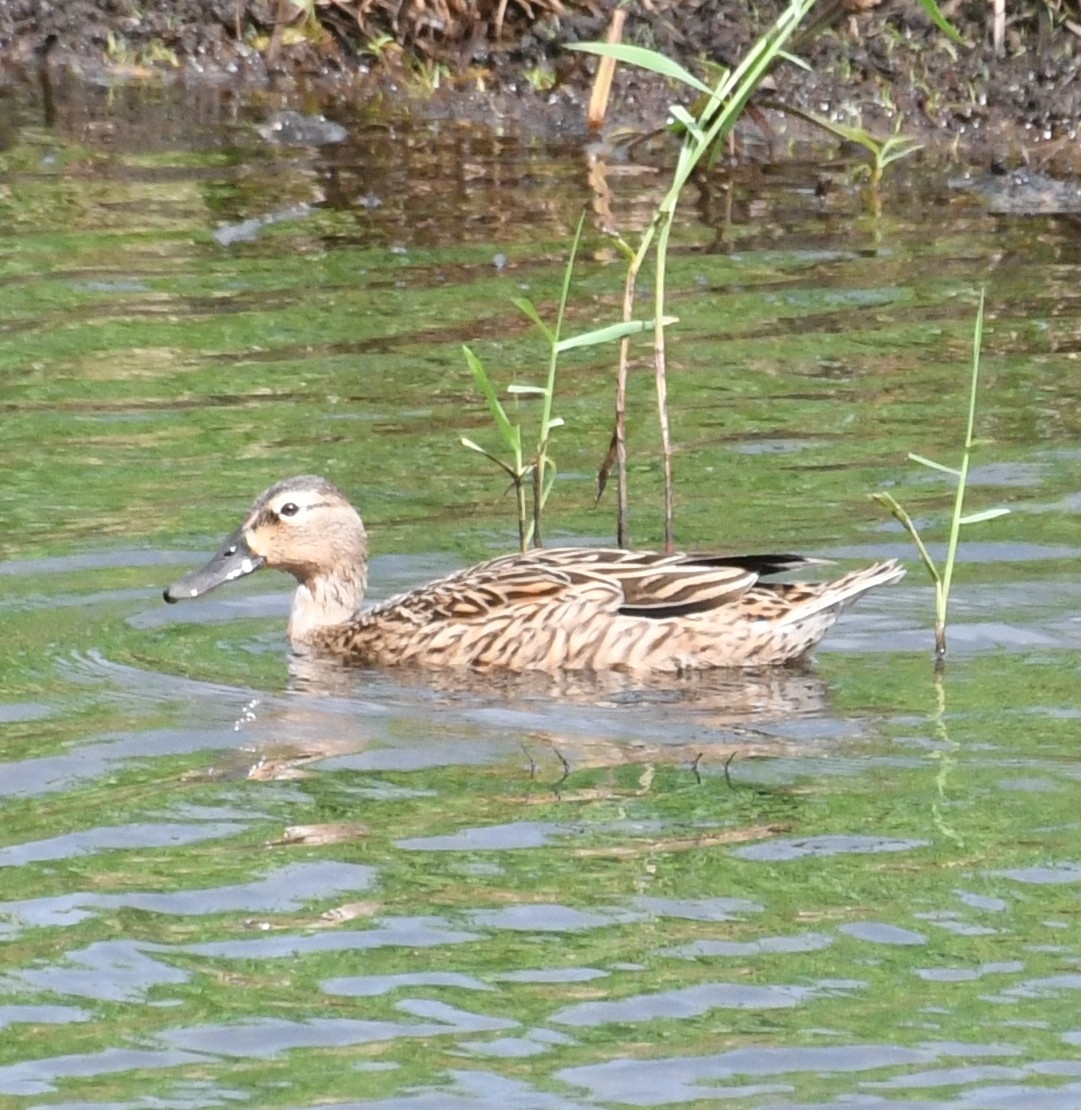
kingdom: Animalia
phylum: Chordata
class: Aves
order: Anseriformes
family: Anatidae
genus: Anas
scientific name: Anas wyvilliana
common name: Hawaiian duck
